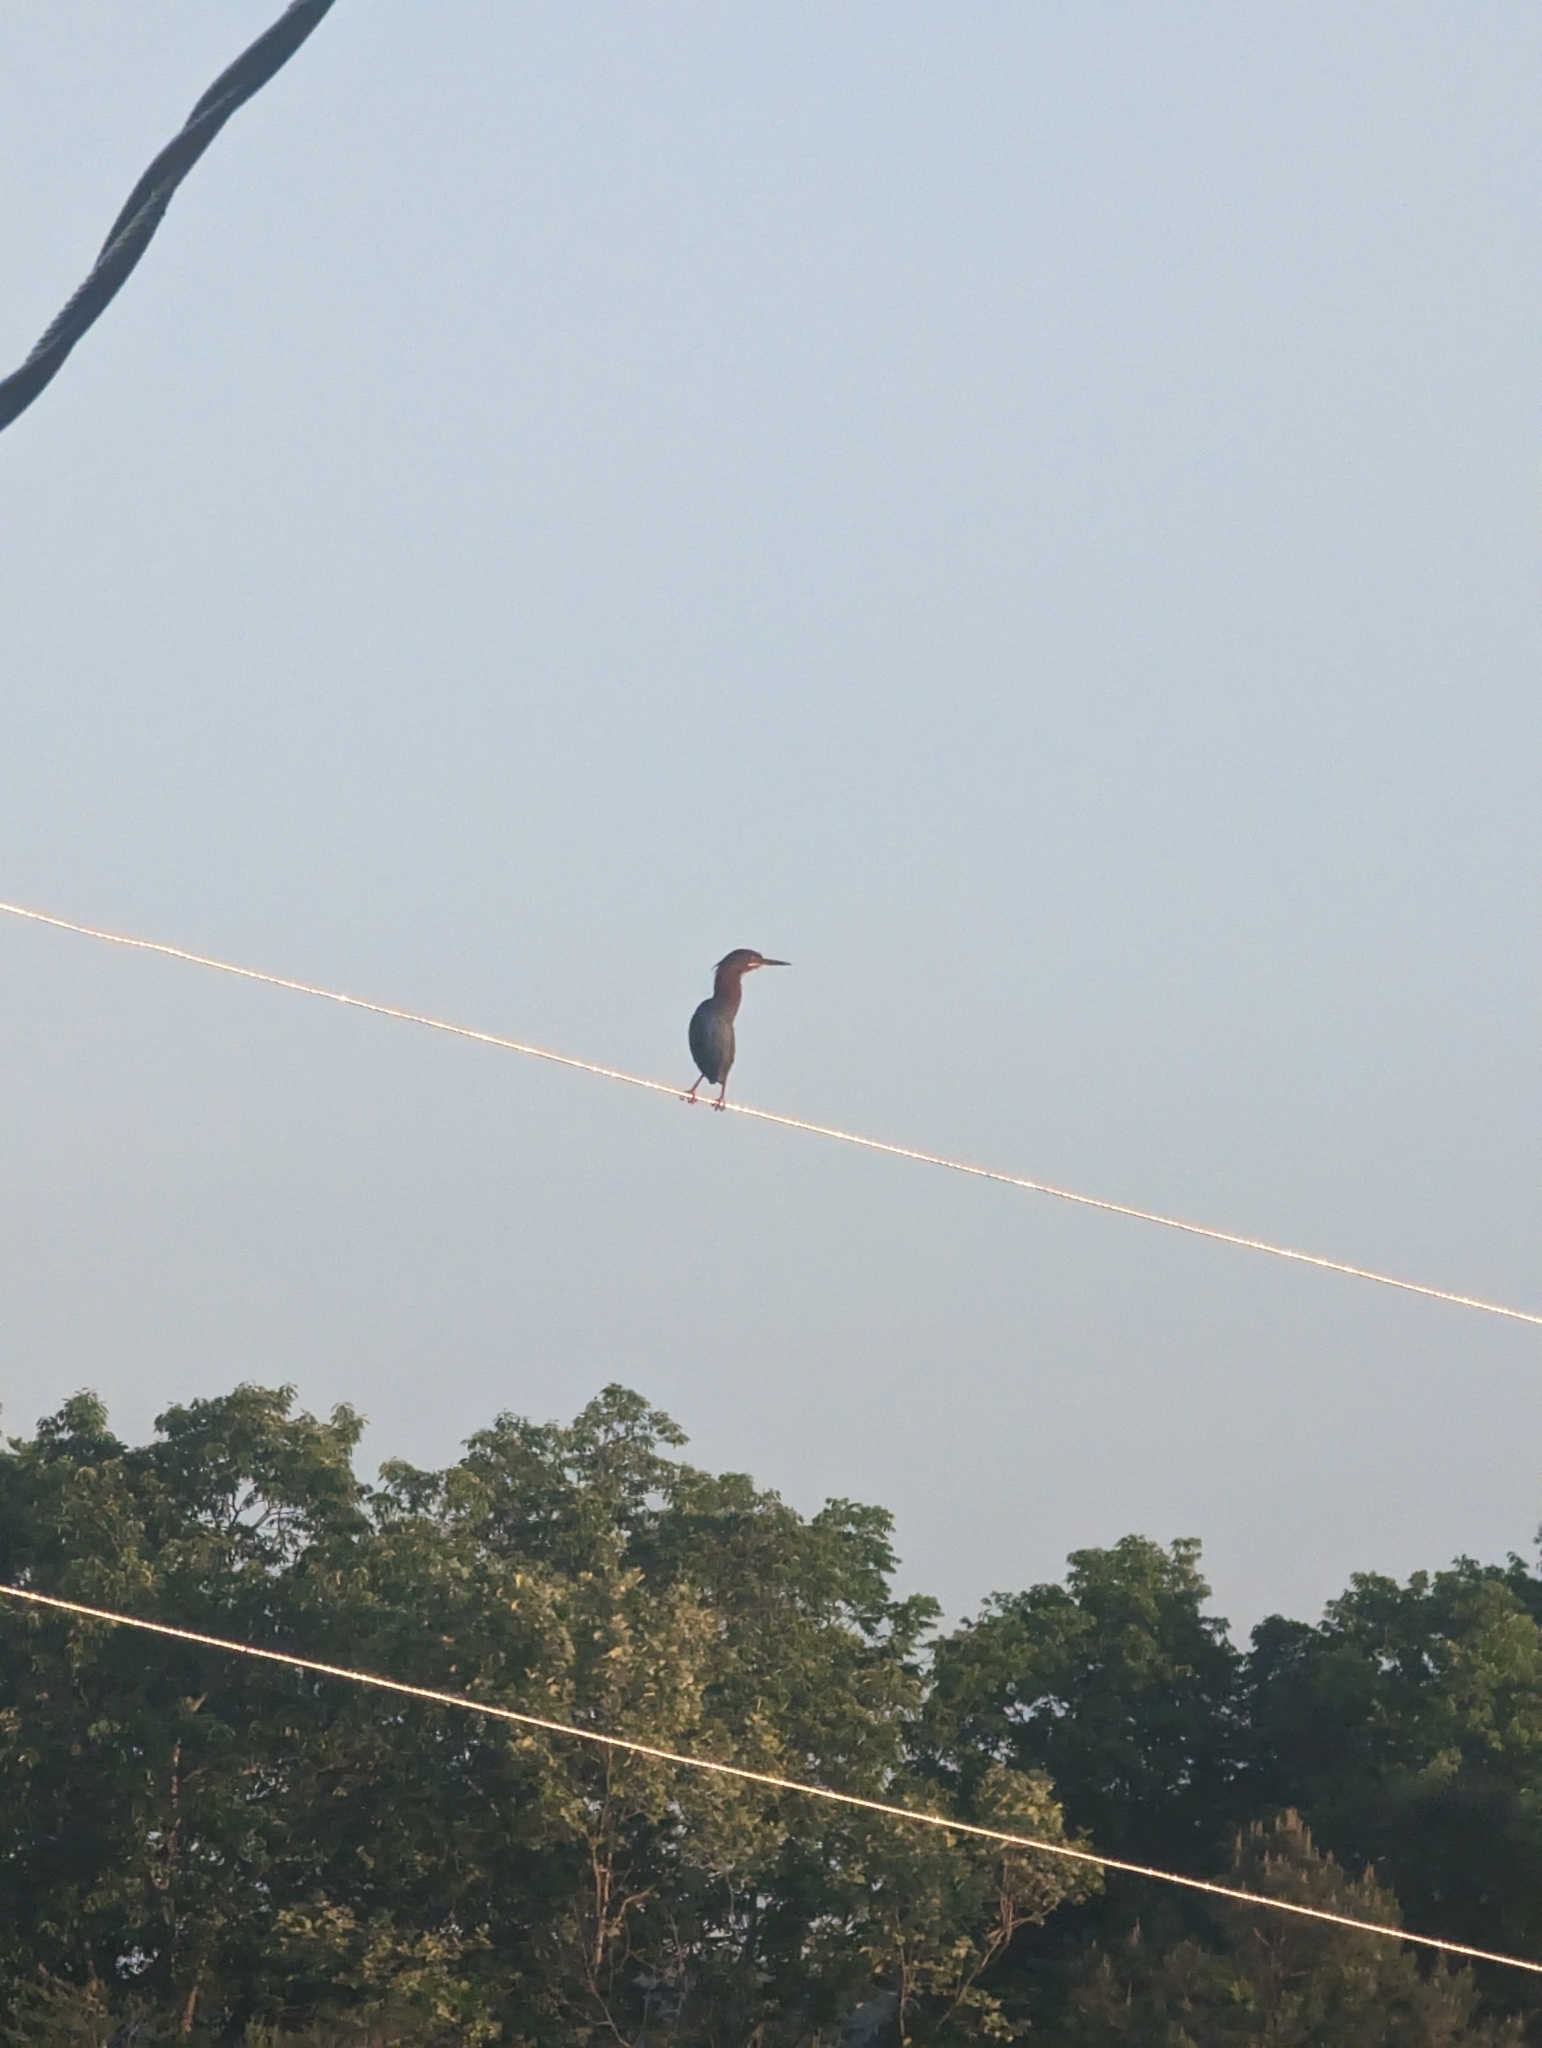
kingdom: Animalia
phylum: Chordata
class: Aves
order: Pelecaniformes
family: Ardeidae
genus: Butorides
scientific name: Butorides virescens
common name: Green heron
